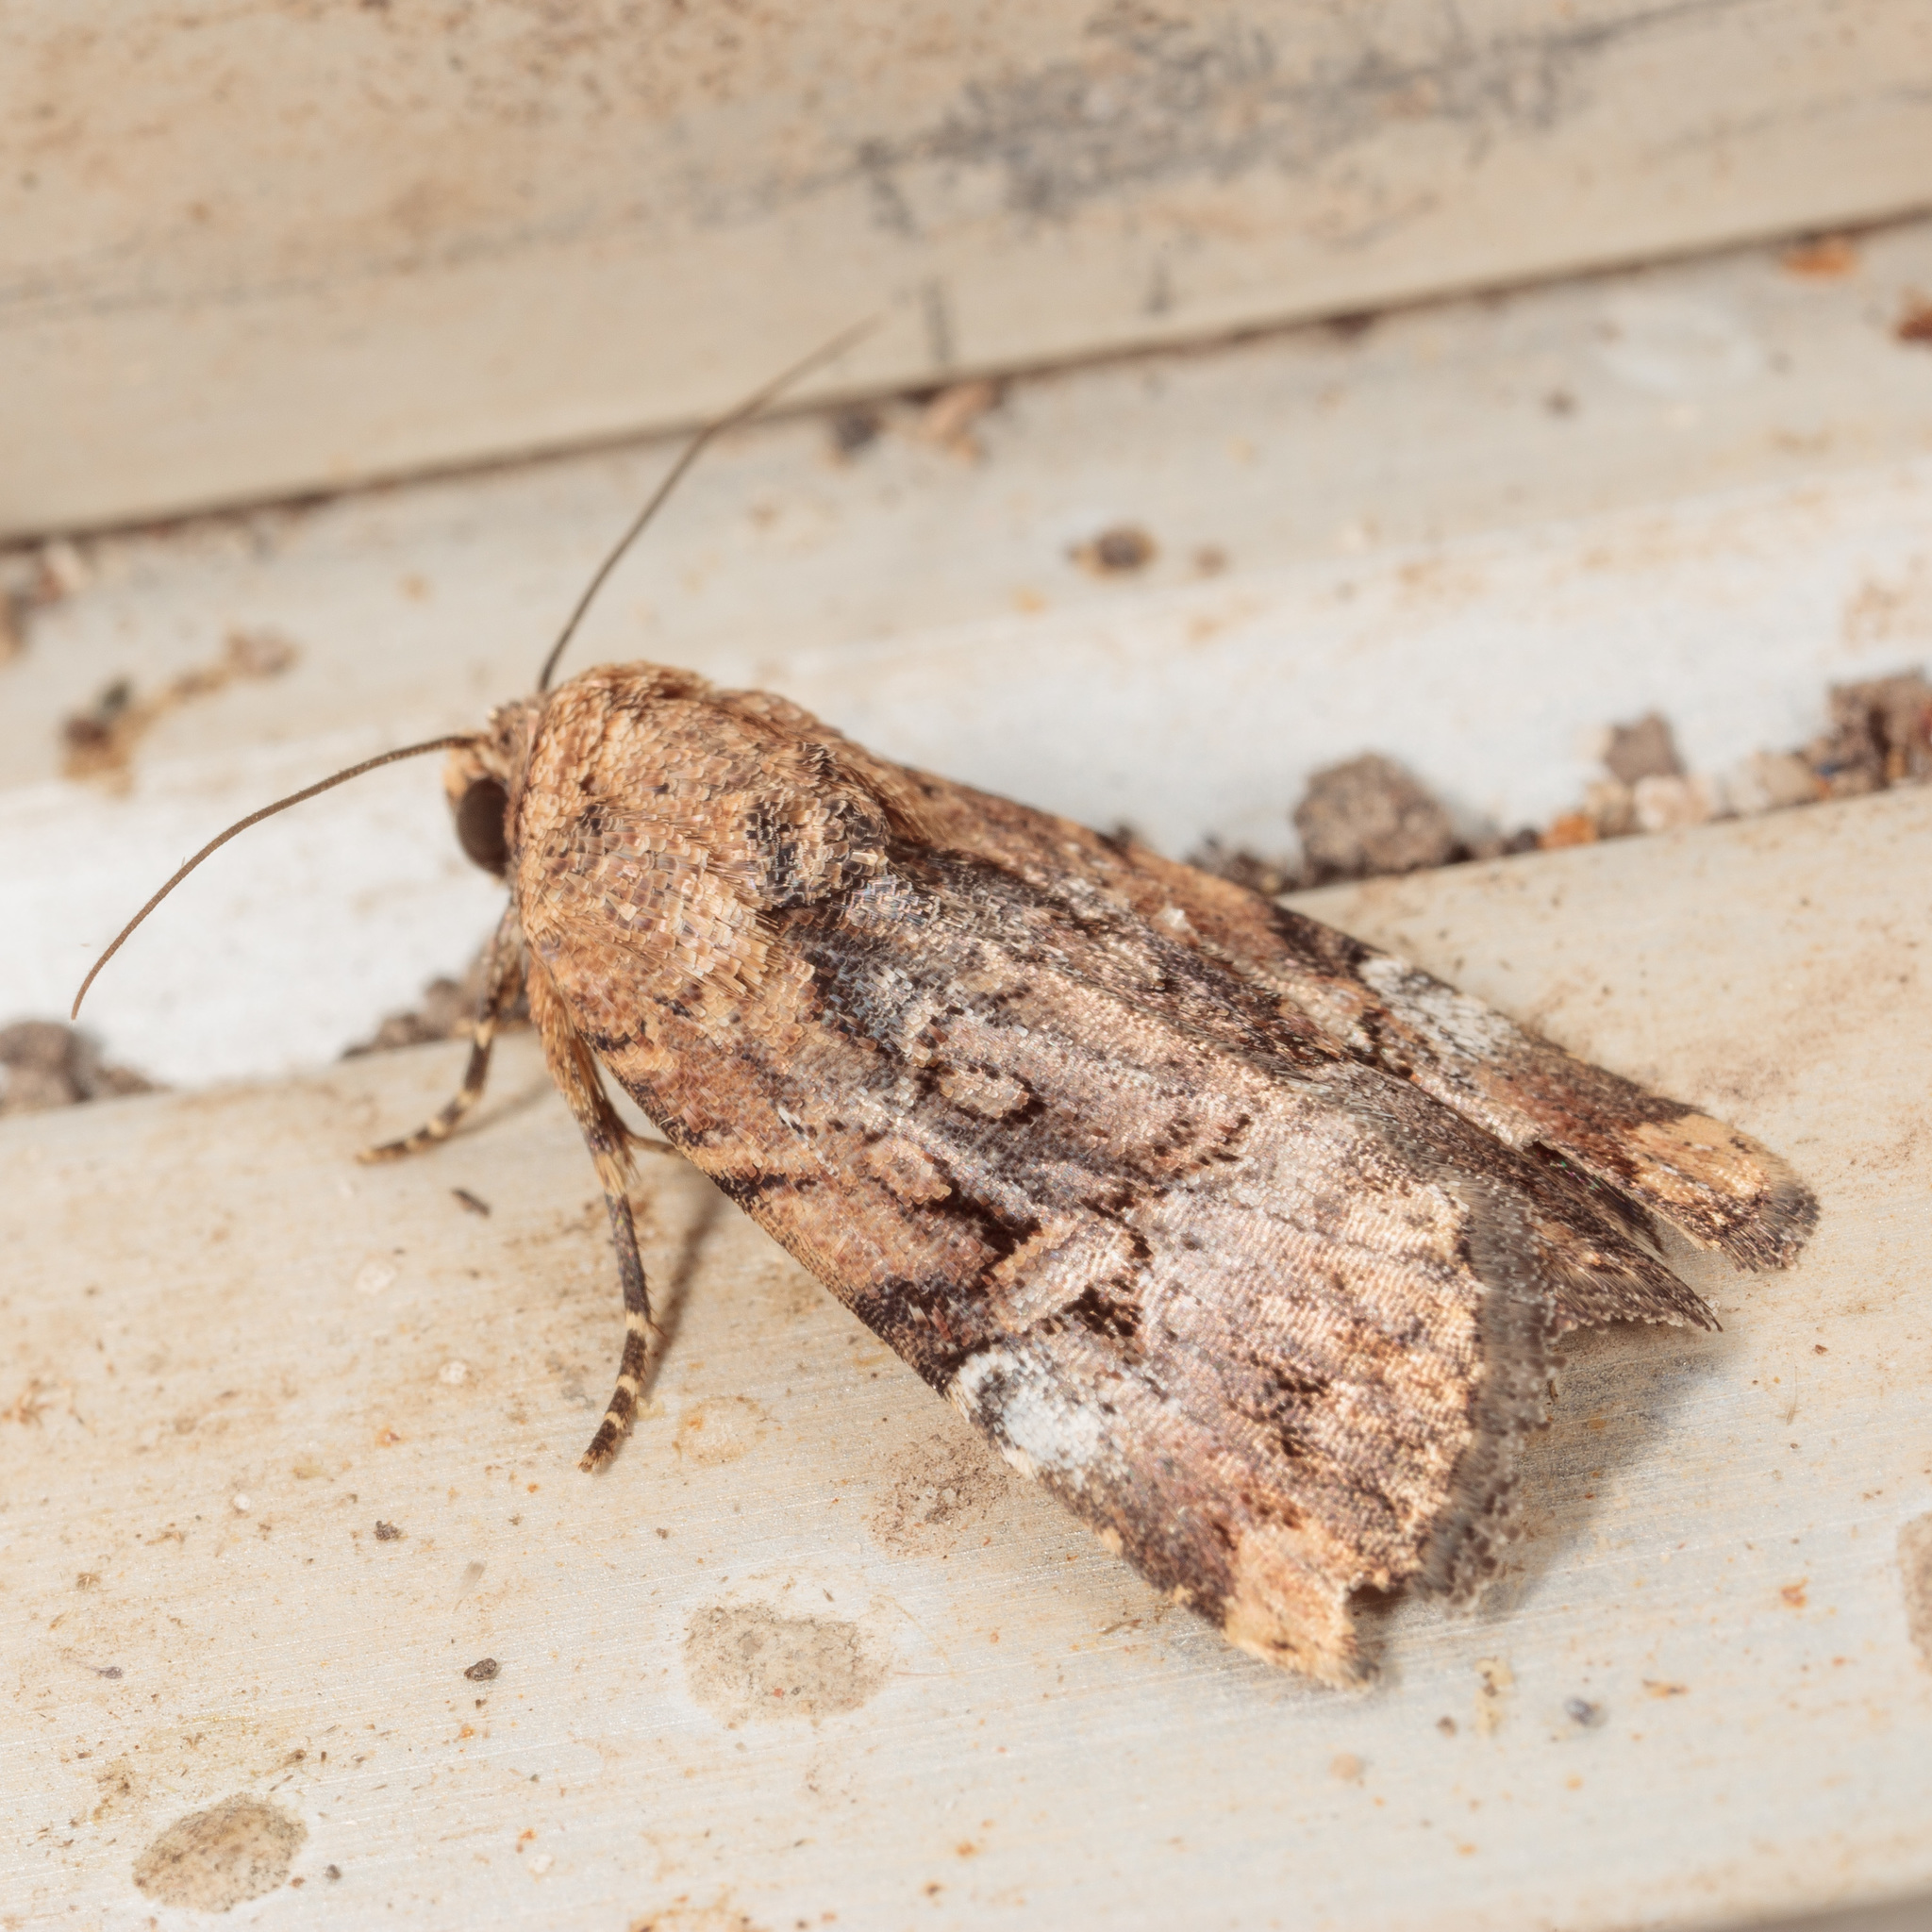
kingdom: Animalia
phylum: Arthropoda
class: Insecta
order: Lepidoptera
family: Noctuidae
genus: Elaphria
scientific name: Elaphria chalcedonia
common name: Chalcedony midget
